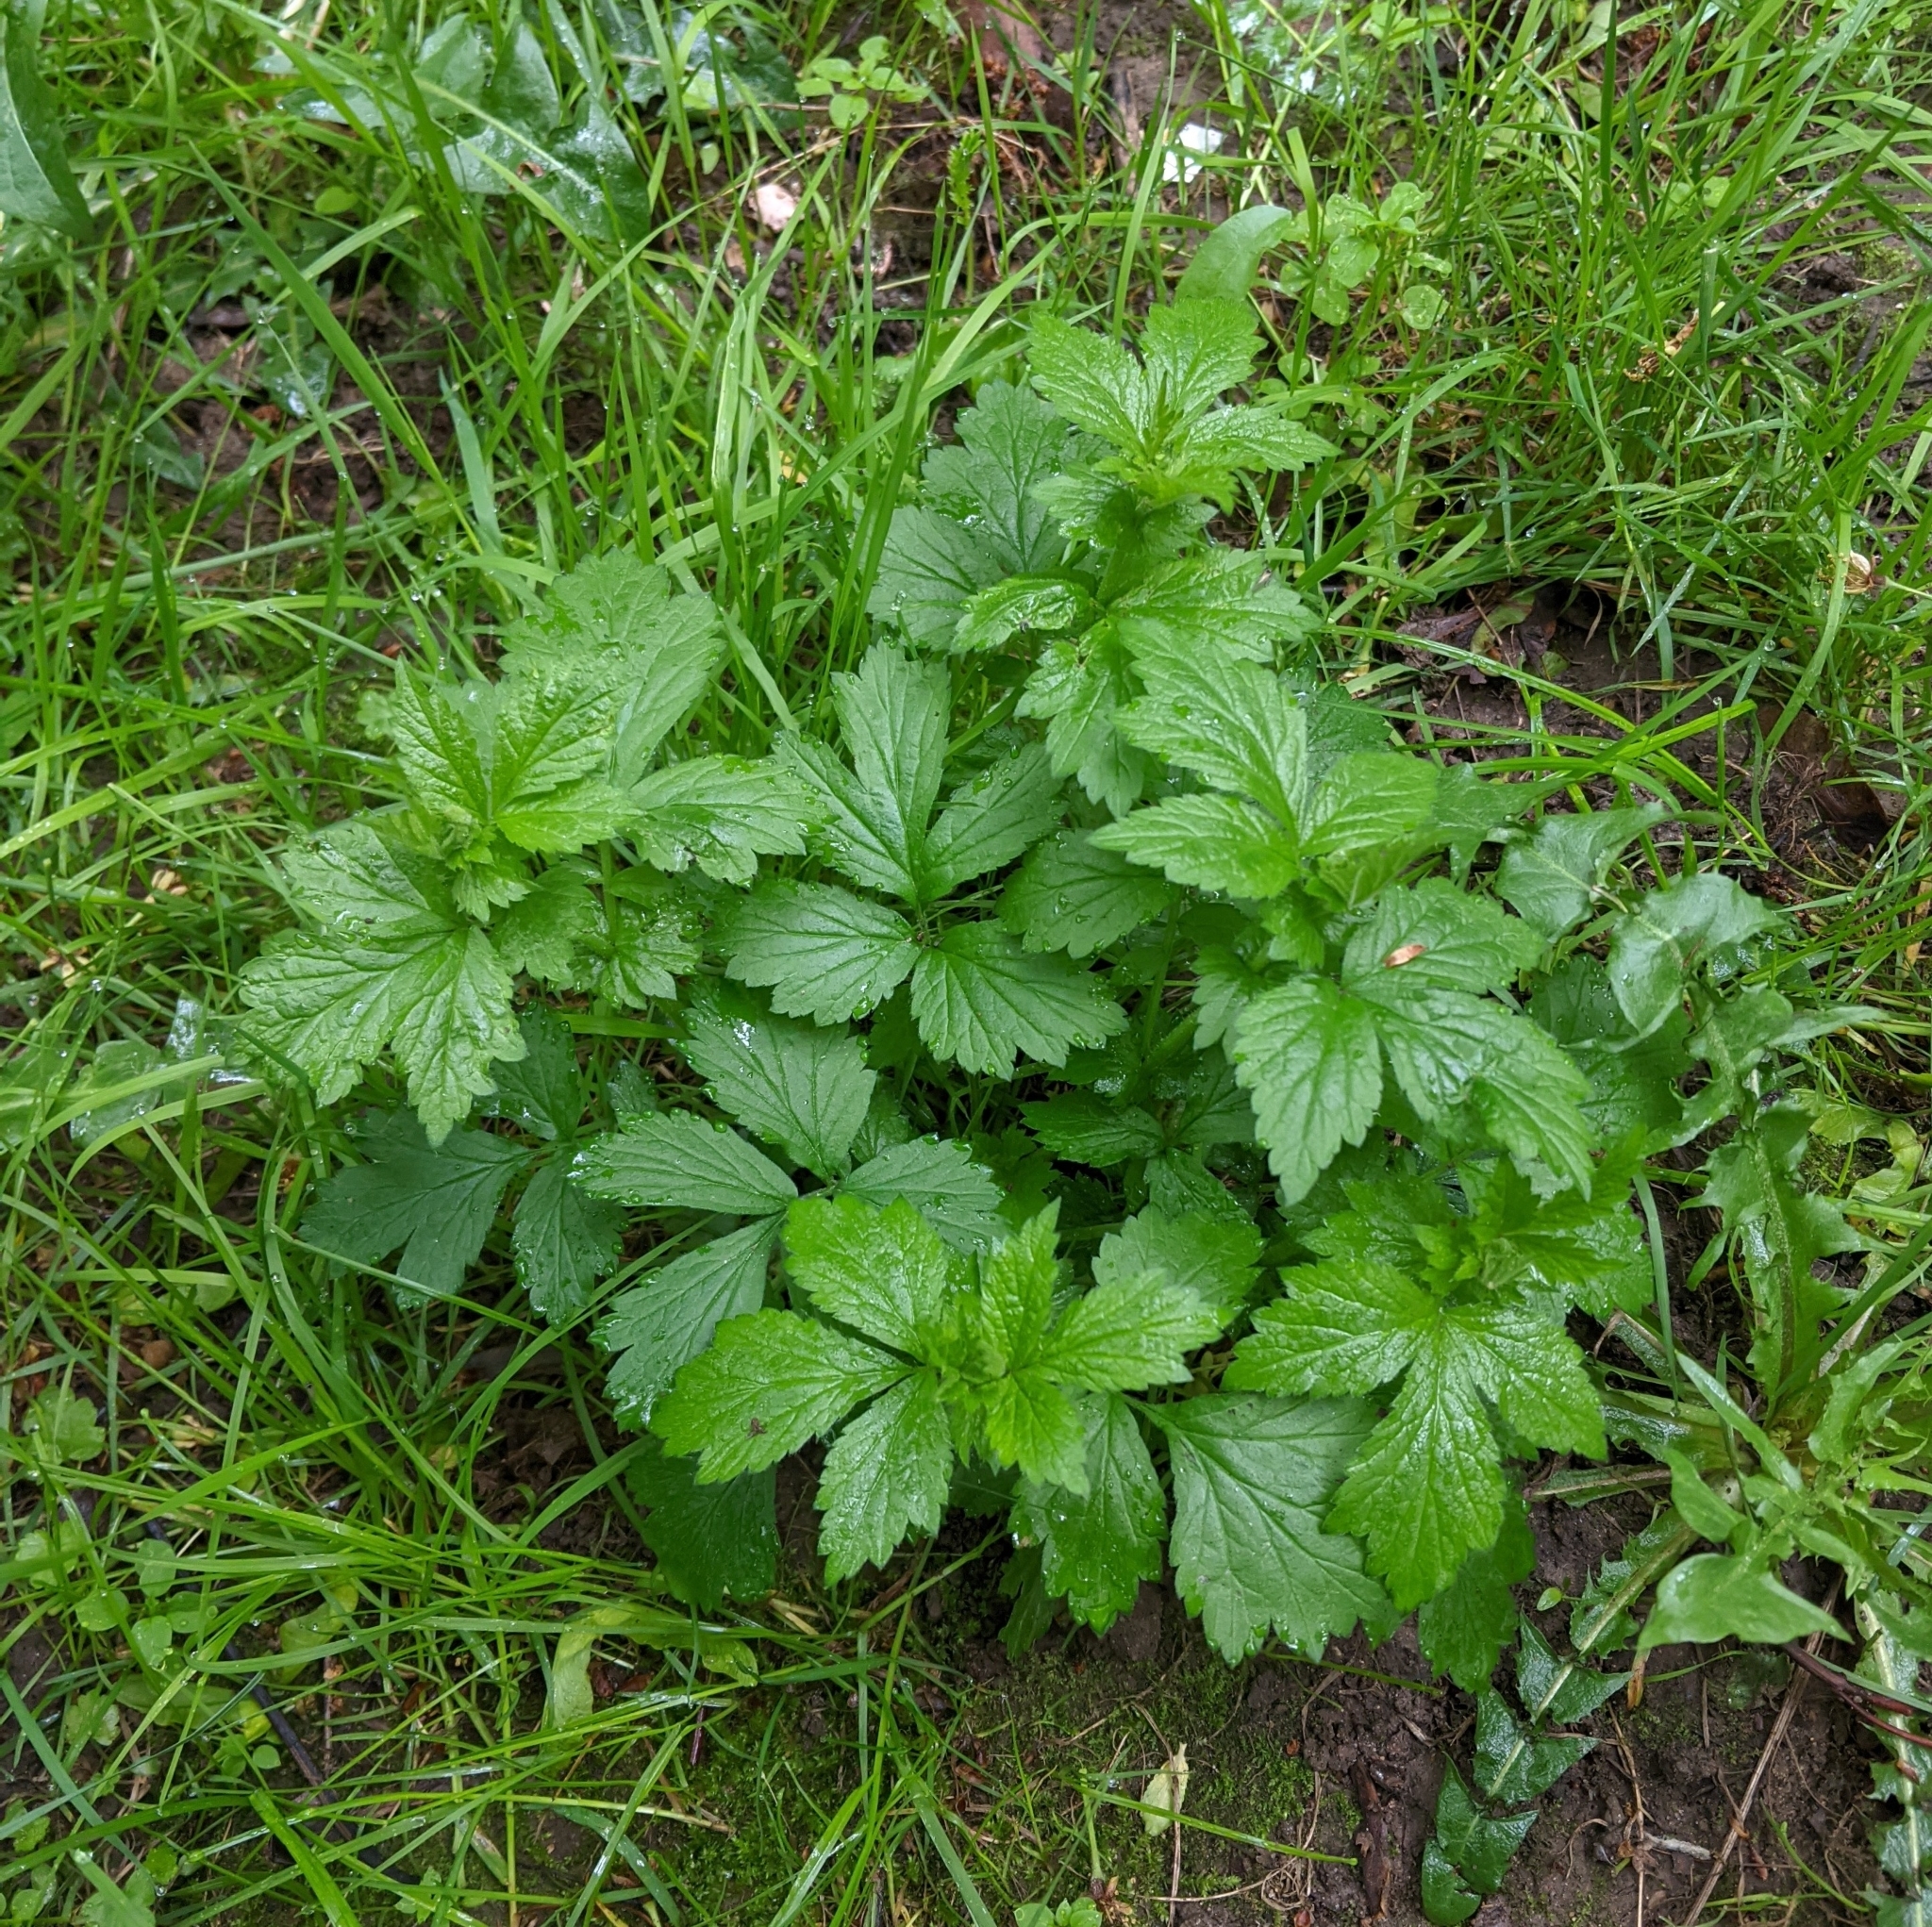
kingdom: Plantae
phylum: Tracheophyta
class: Magnoliopsida
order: Rosales
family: Rosaceae
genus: Geum
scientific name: Geum urbanum
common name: Wood avens
